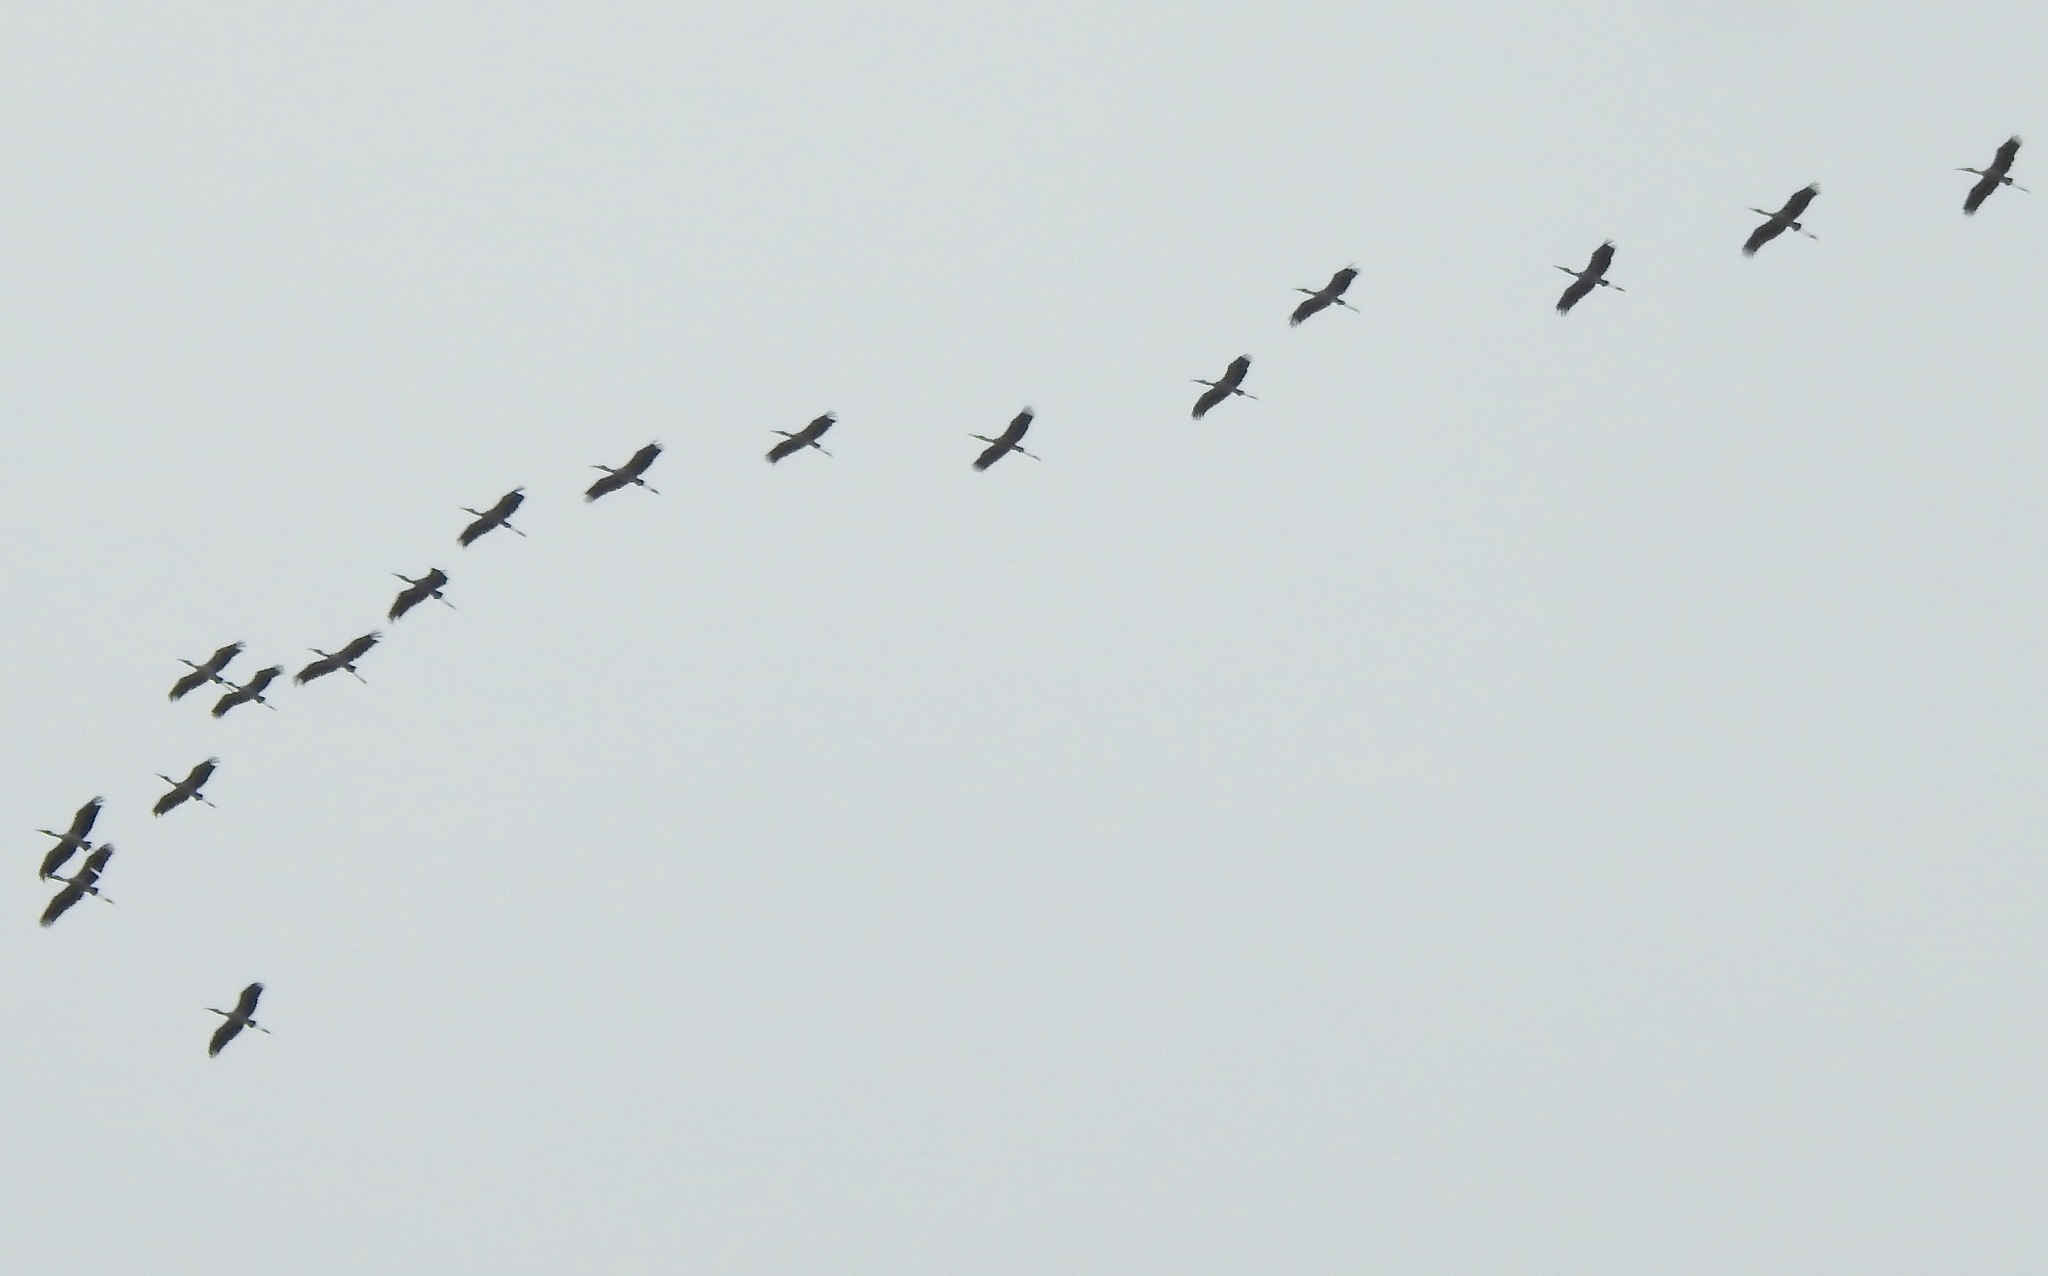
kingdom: Animalia
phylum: Chordata
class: Aves
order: Ciconiiformes
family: Ciconiidae
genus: Mycteria
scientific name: Mycteria americana
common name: Wood stork
